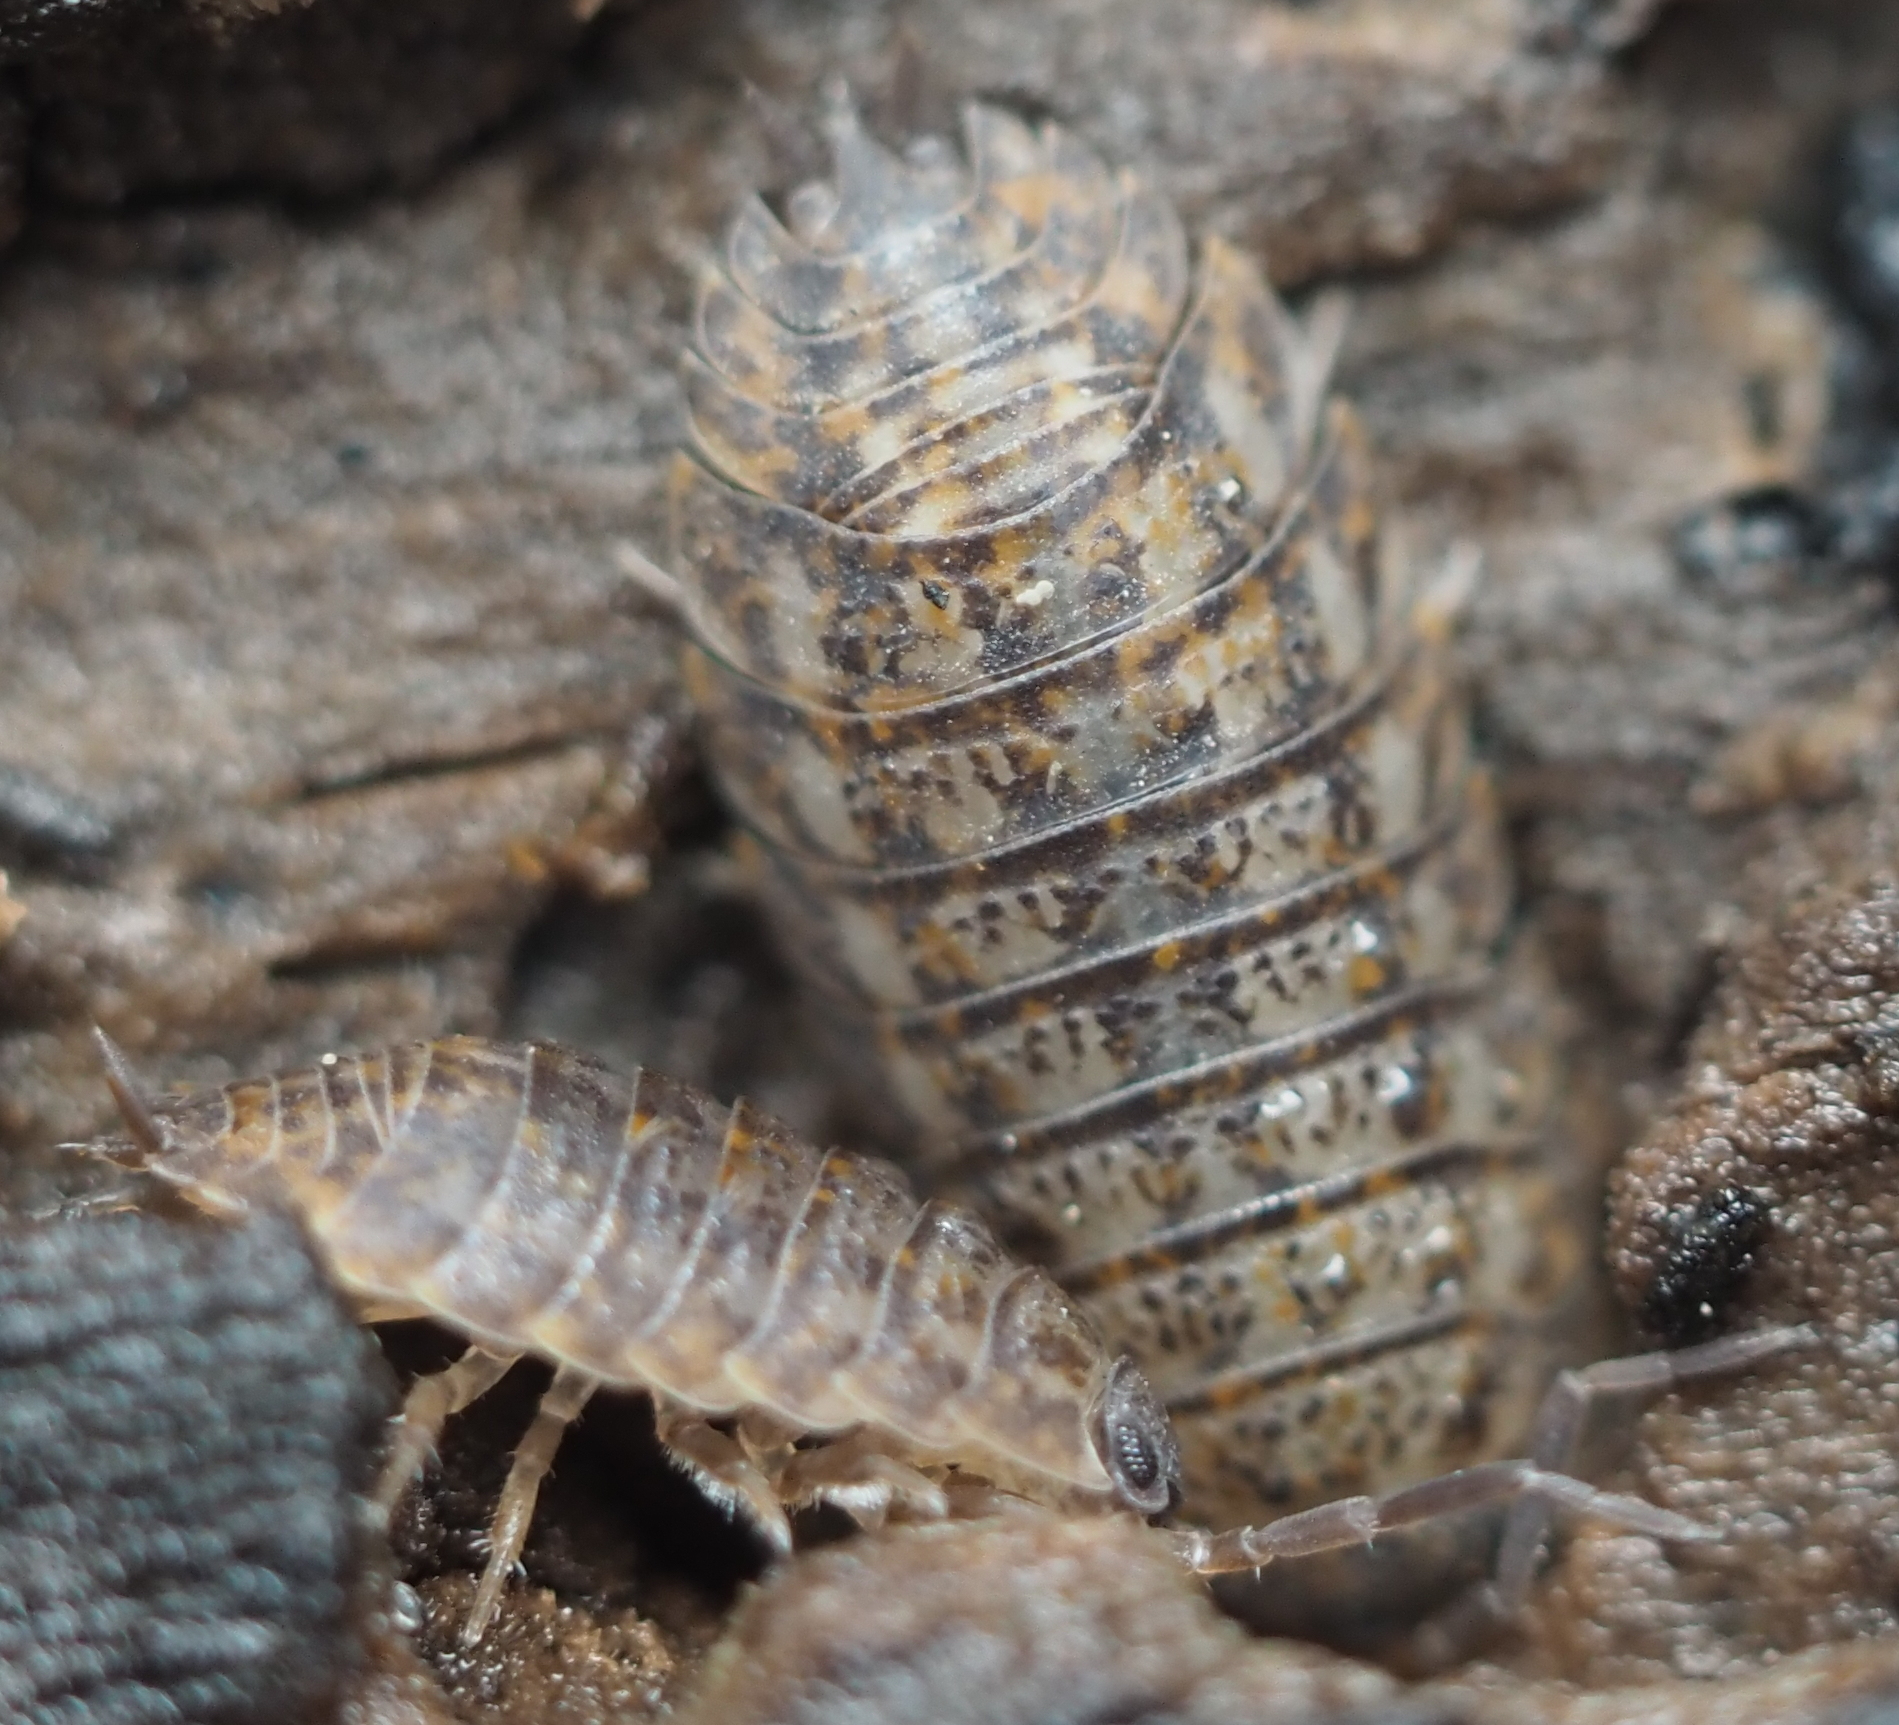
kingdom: Animalia
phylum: Arthropoda
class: Malacostraca
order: Isopoda
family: Trachelipodidae
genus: Trachelipus
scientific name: Trachelipus rathkii
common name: Isopod
